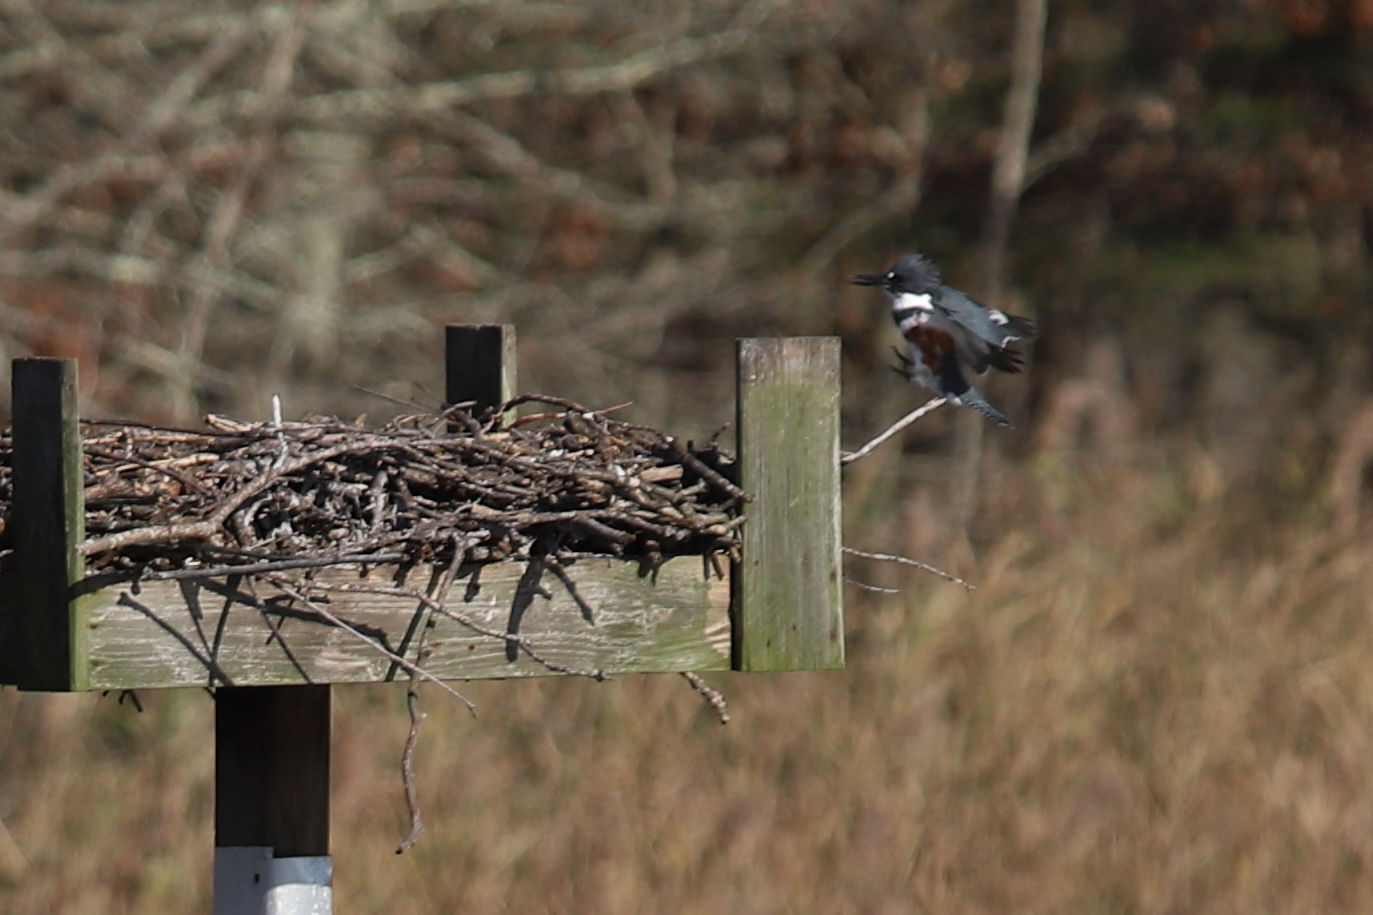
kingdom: Animalia
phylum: Chordata
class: Aves
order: Coraciiformes
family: Alcedinidae
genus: Megaceryle
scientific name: Megaceryle alcyon
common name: Belted kingfisher
